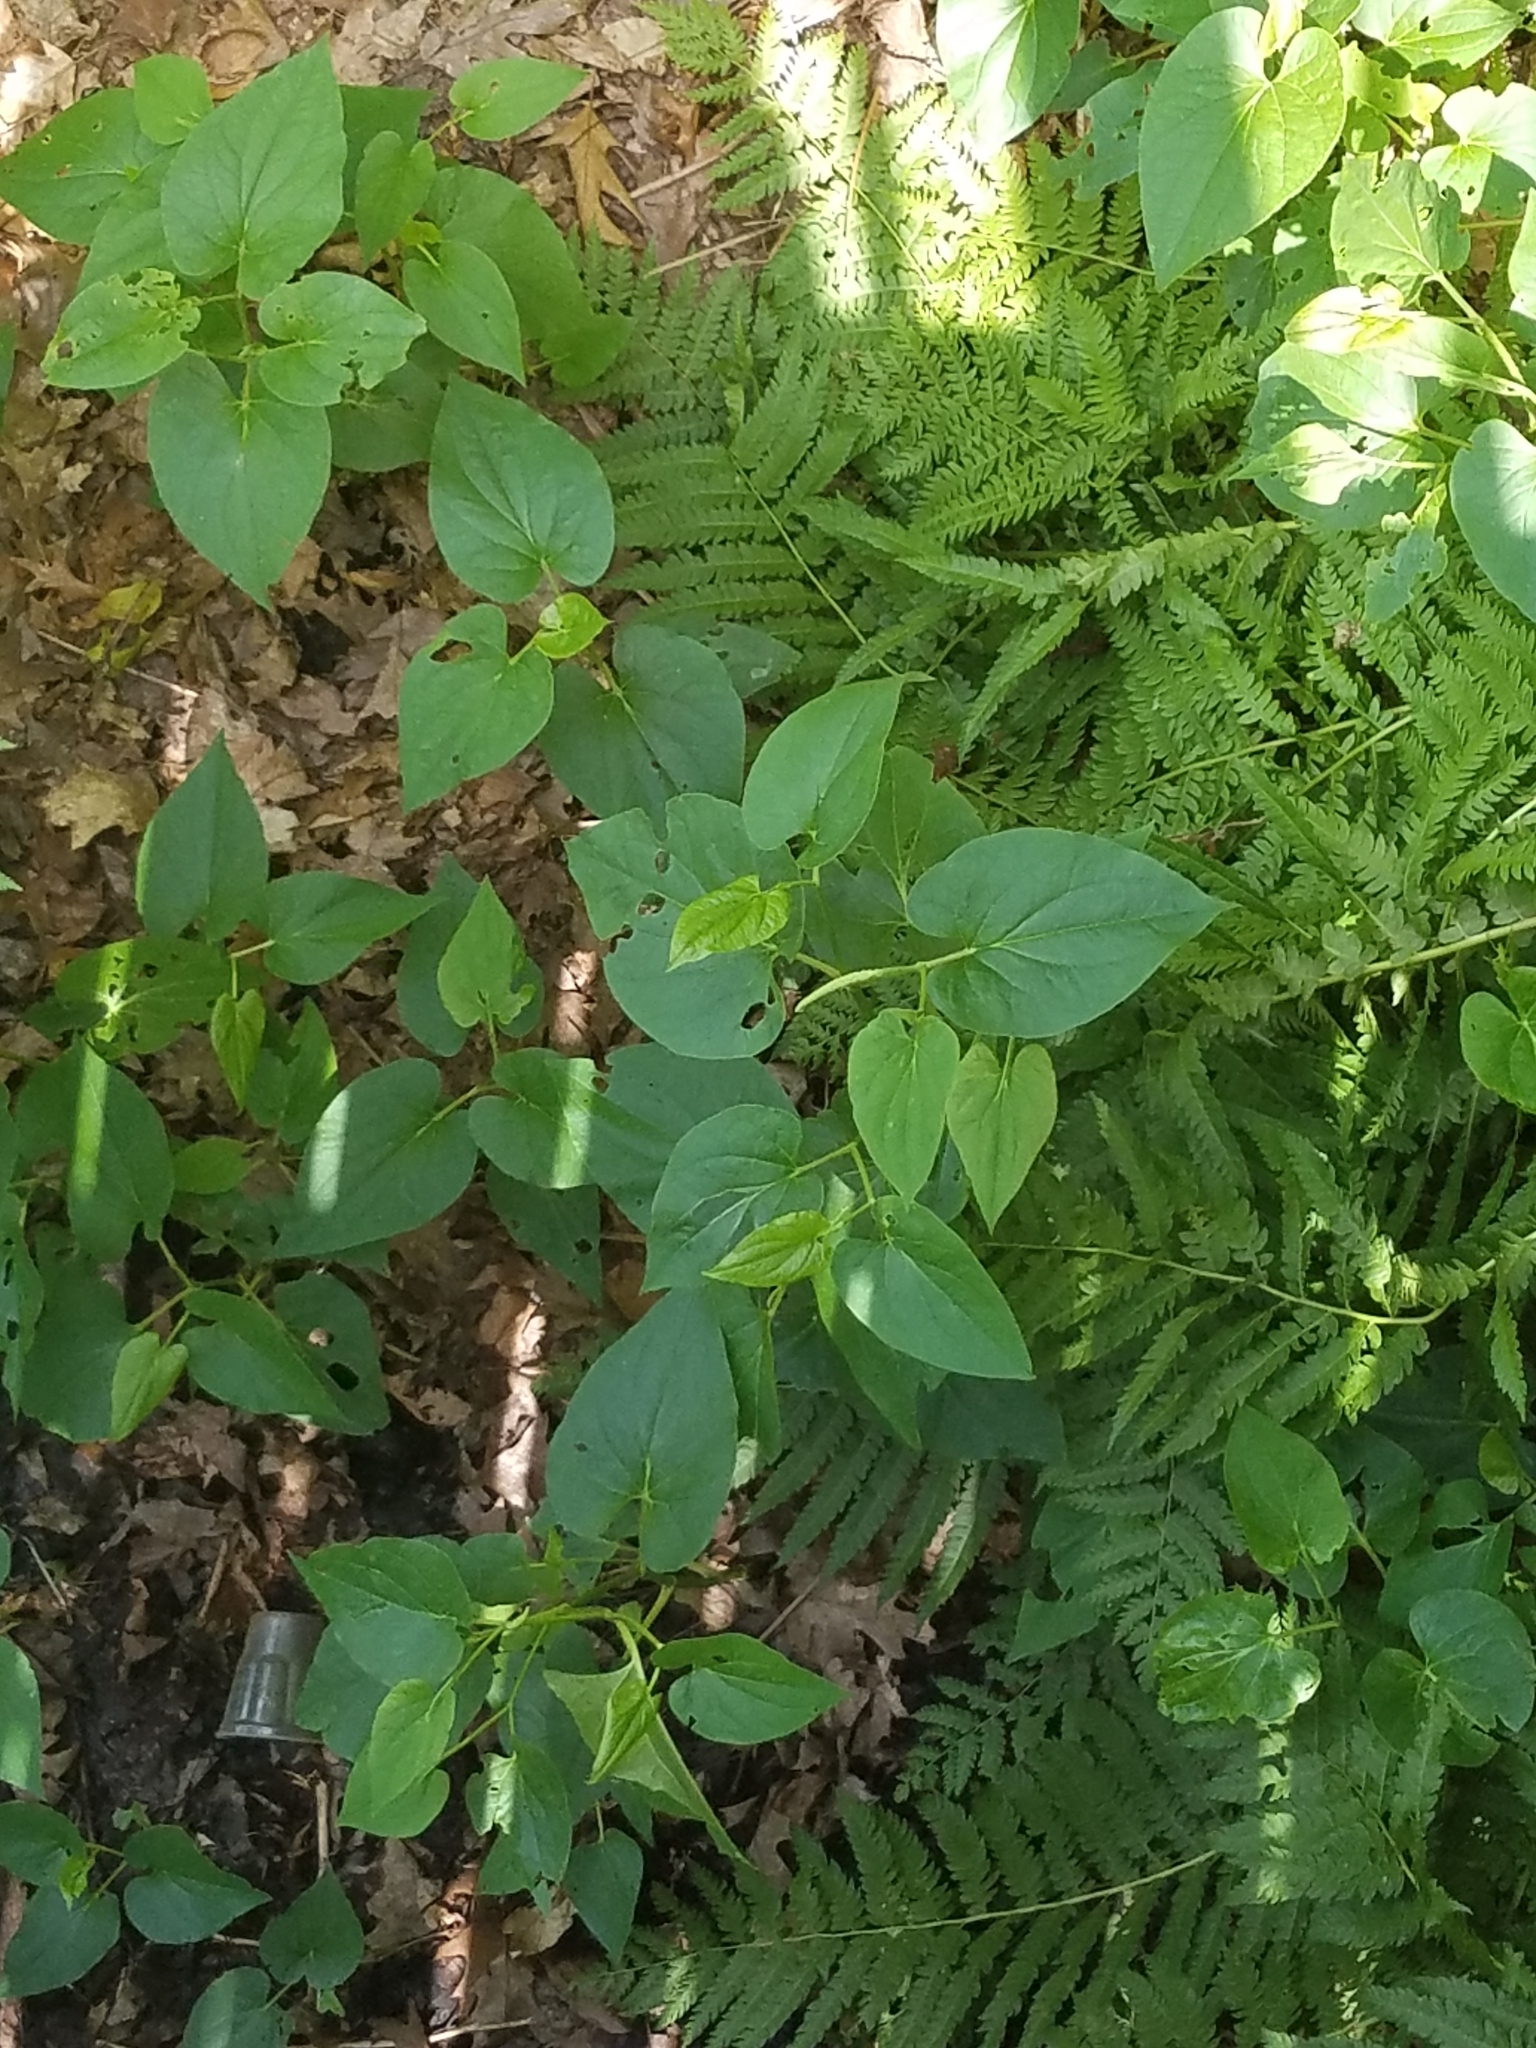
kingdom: Plantae
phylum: Tracheophyta
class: Magnoliopsida
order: Piperales
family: Saururaceae
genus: Saururus
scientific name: Saururus cernuus
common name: Lizard's-tail
